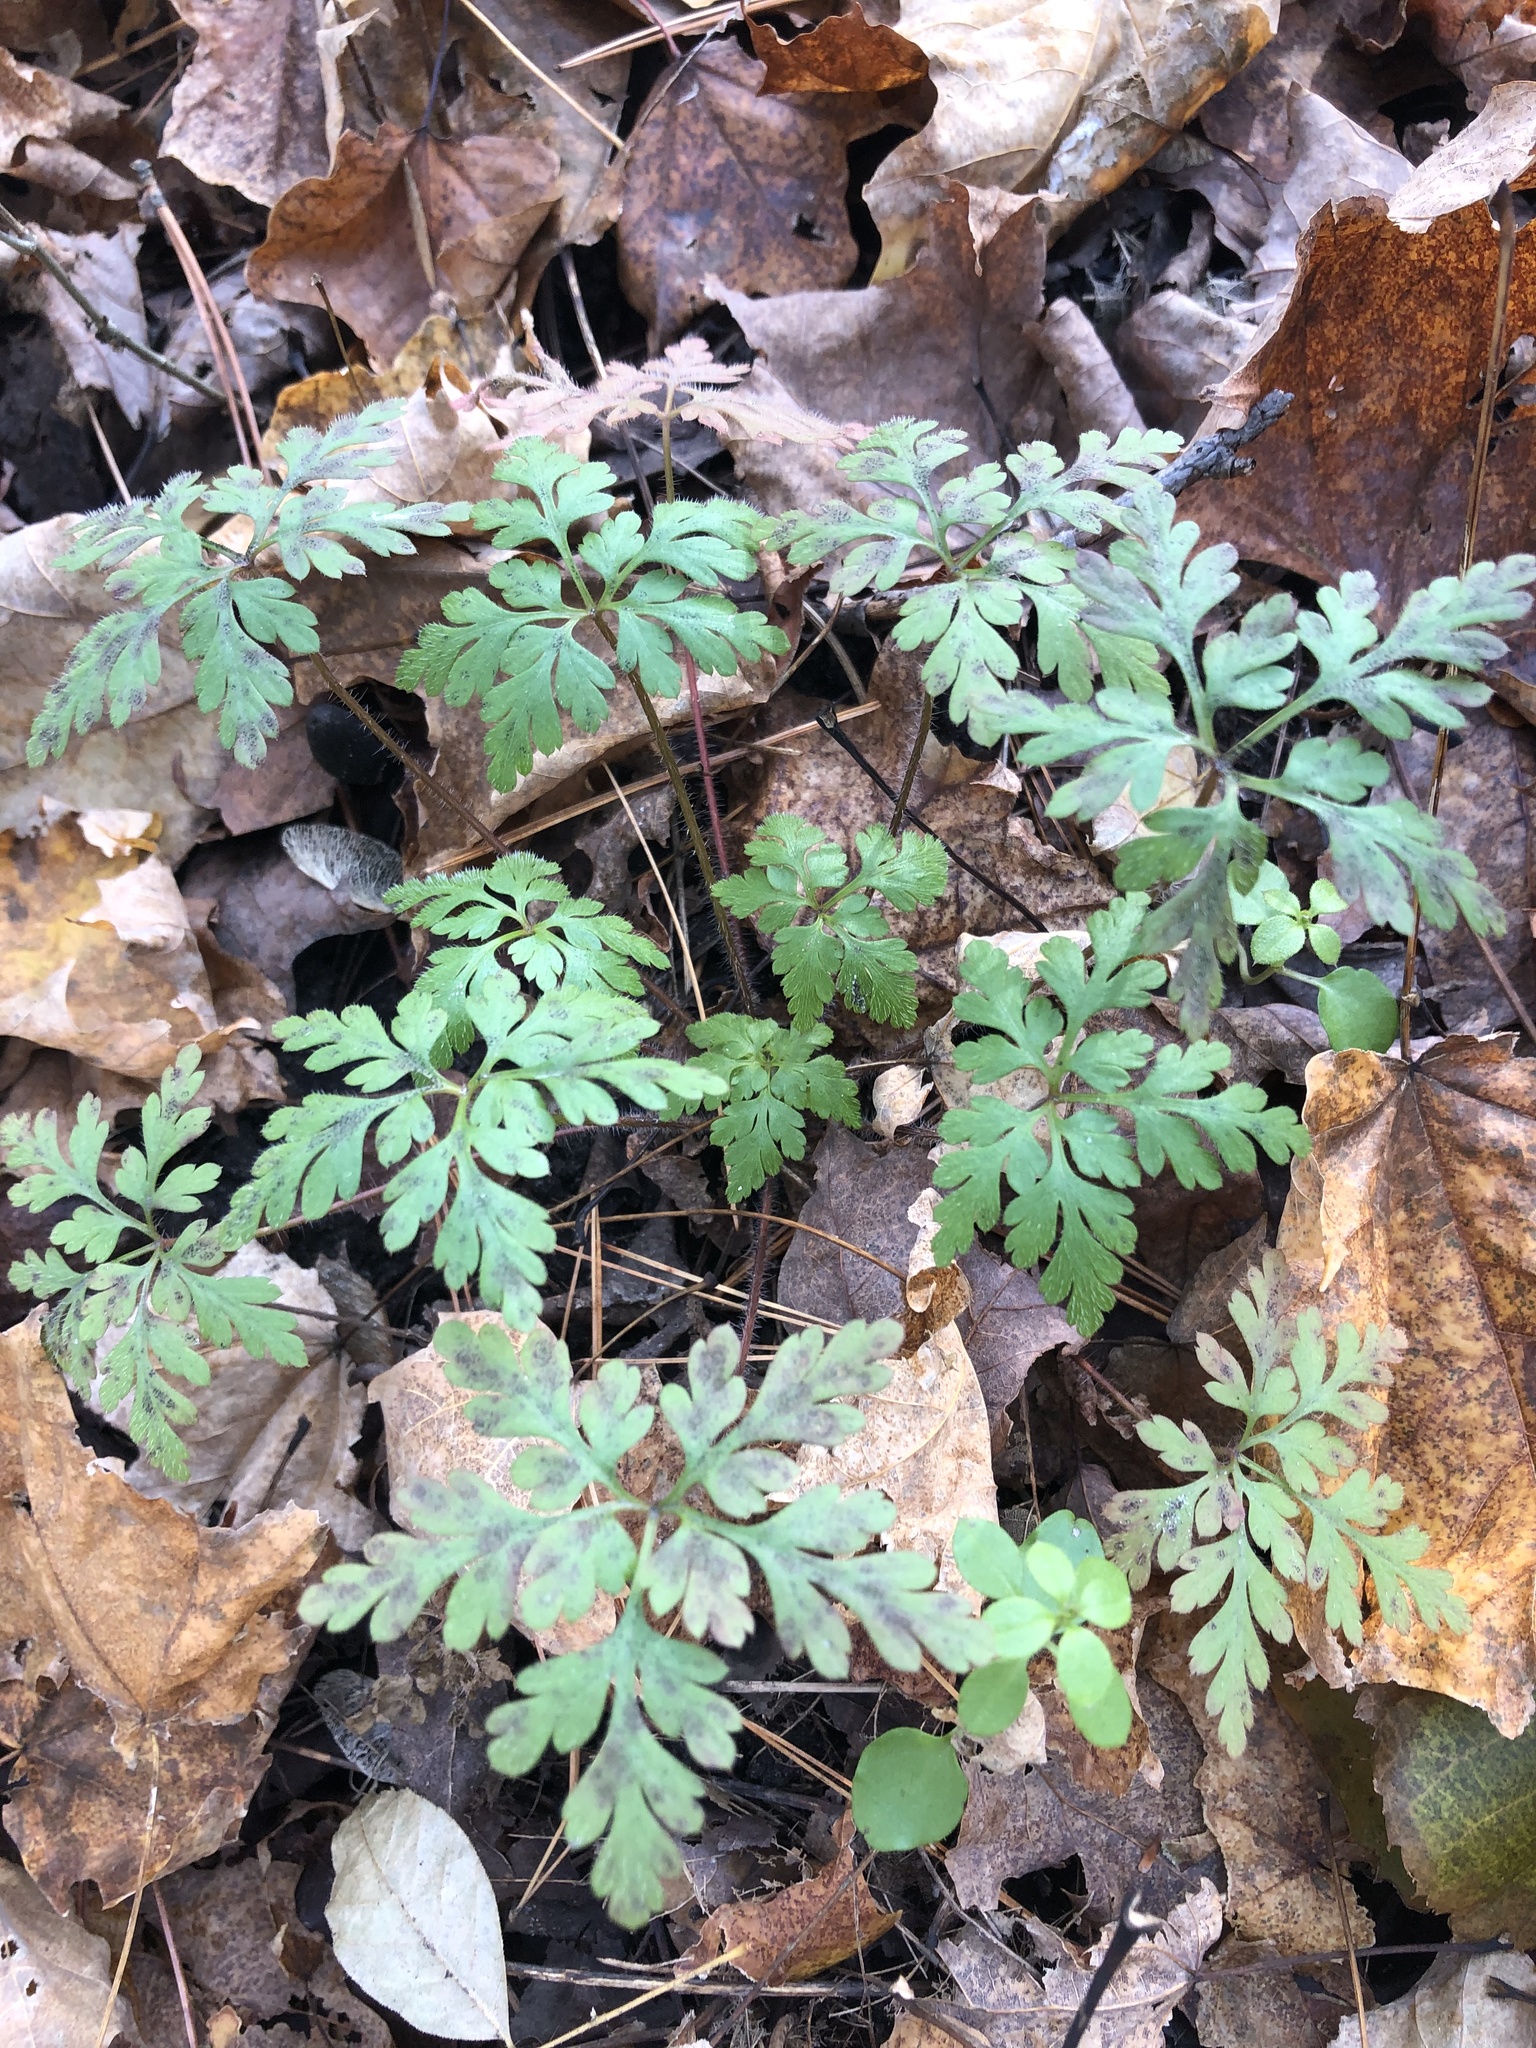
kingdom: Plantae
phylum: Tracheophyta
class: Magnoliopsida
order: Geraniales
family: Geraniaceae
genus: Geranium
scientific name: Geranium robertianum
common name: Herb-robert
